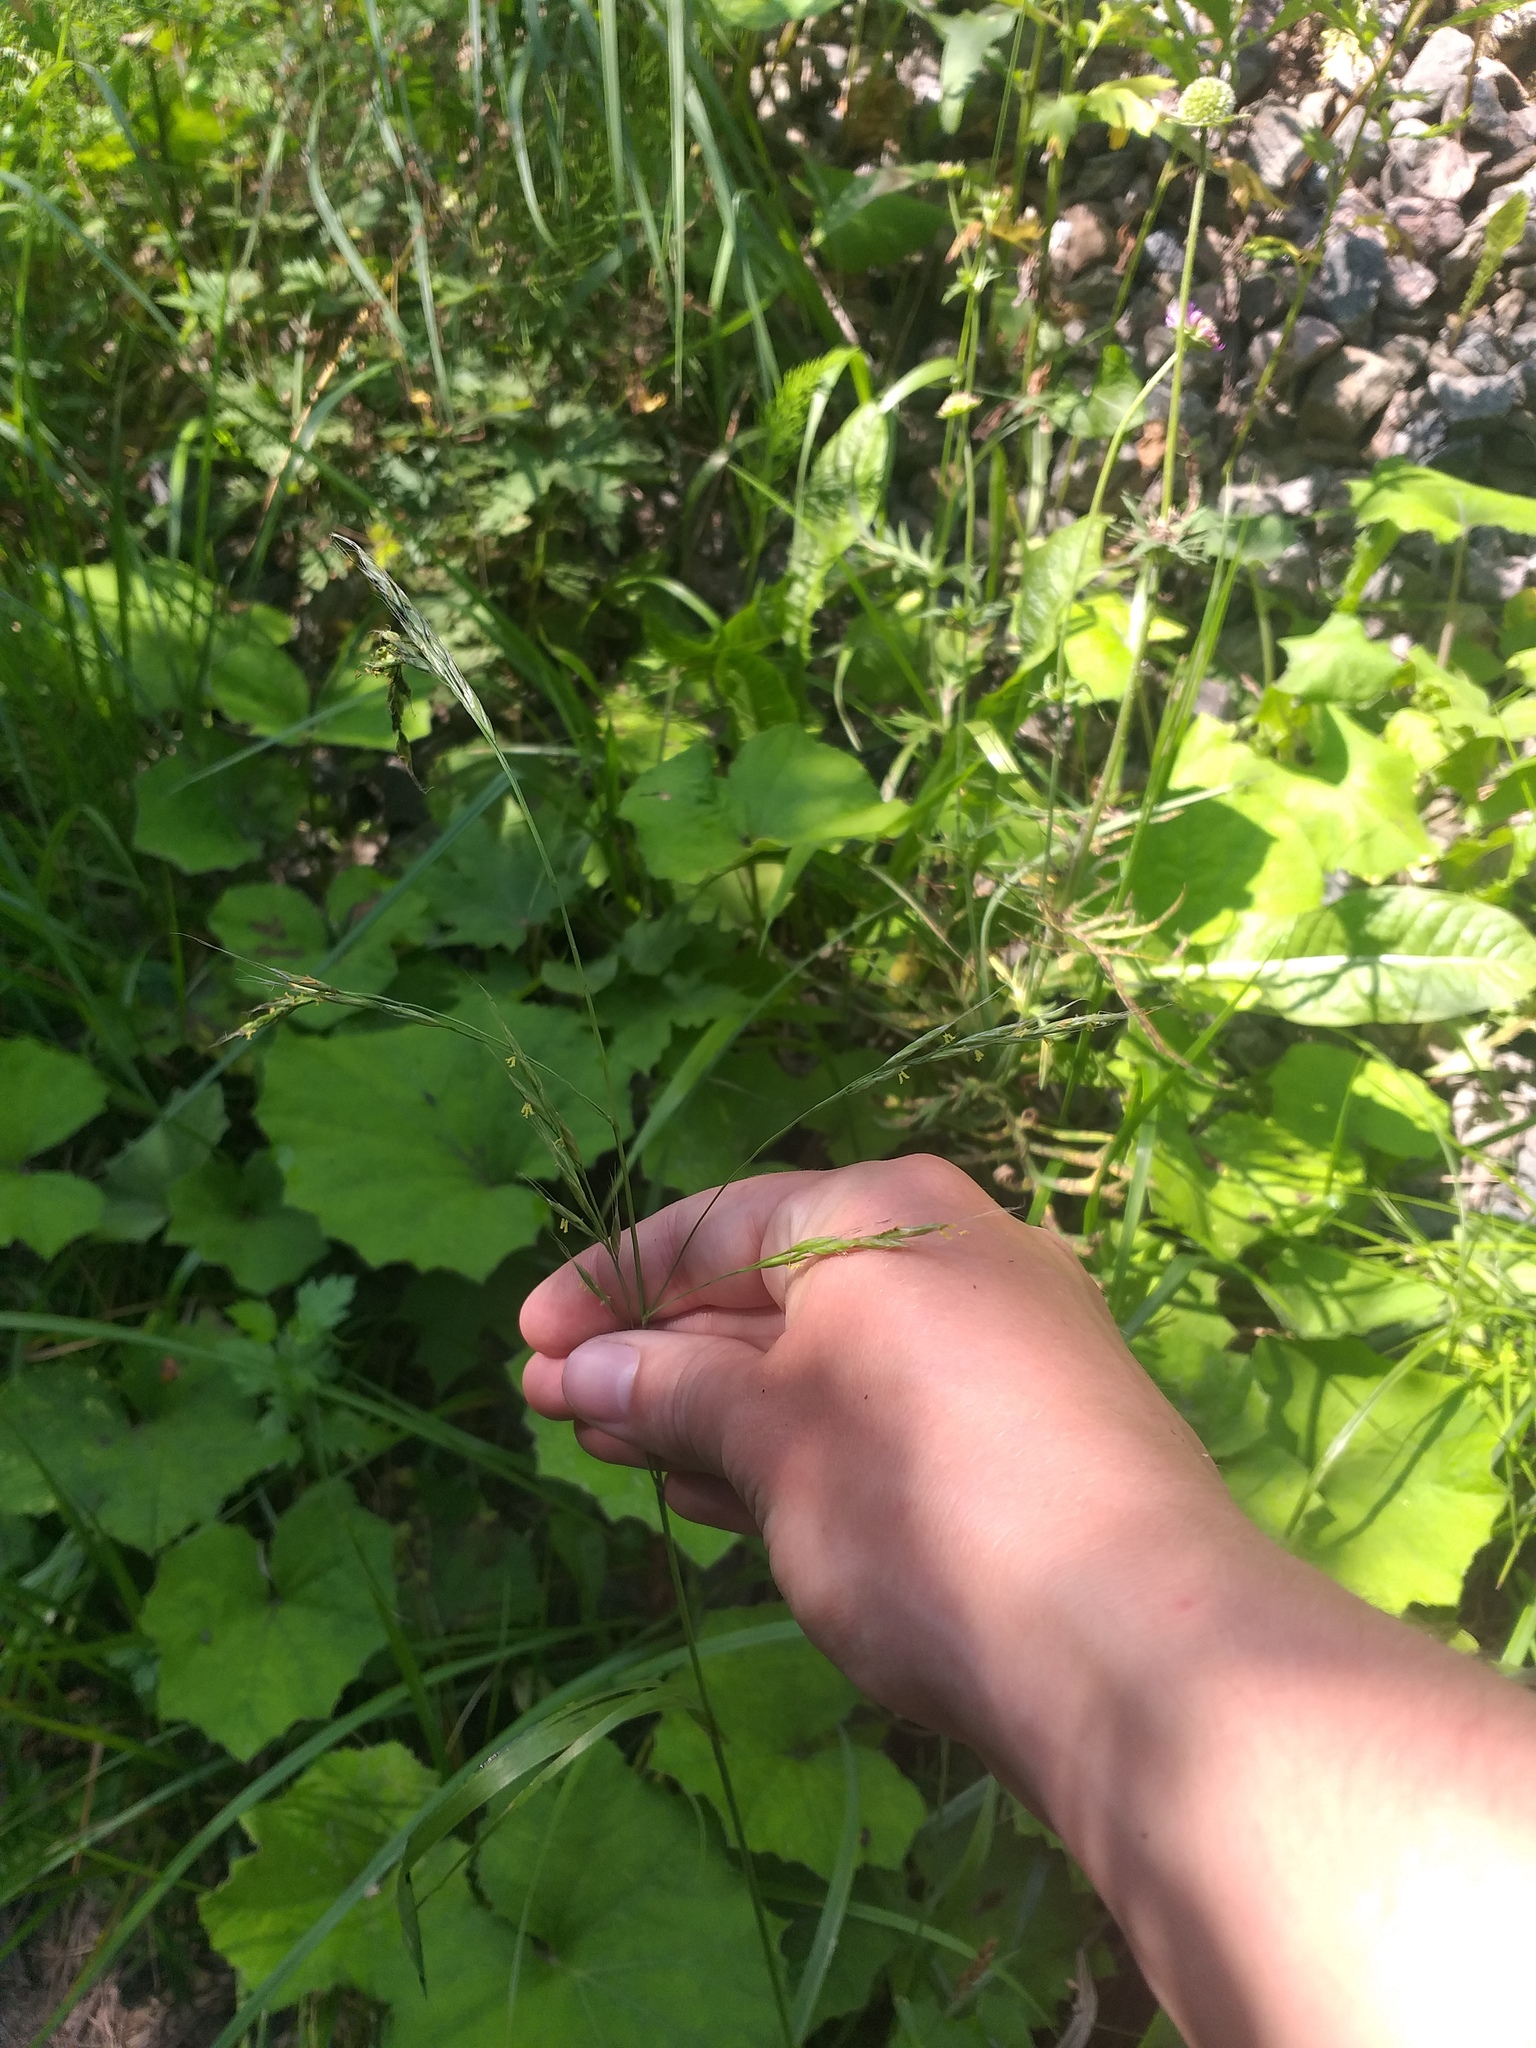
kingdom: Plantae
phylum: Tracheophyta
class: Liliopsida
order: Poales
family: Poaceae
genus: Lolium
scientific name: Lolium giganteum
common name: Giant fescue
